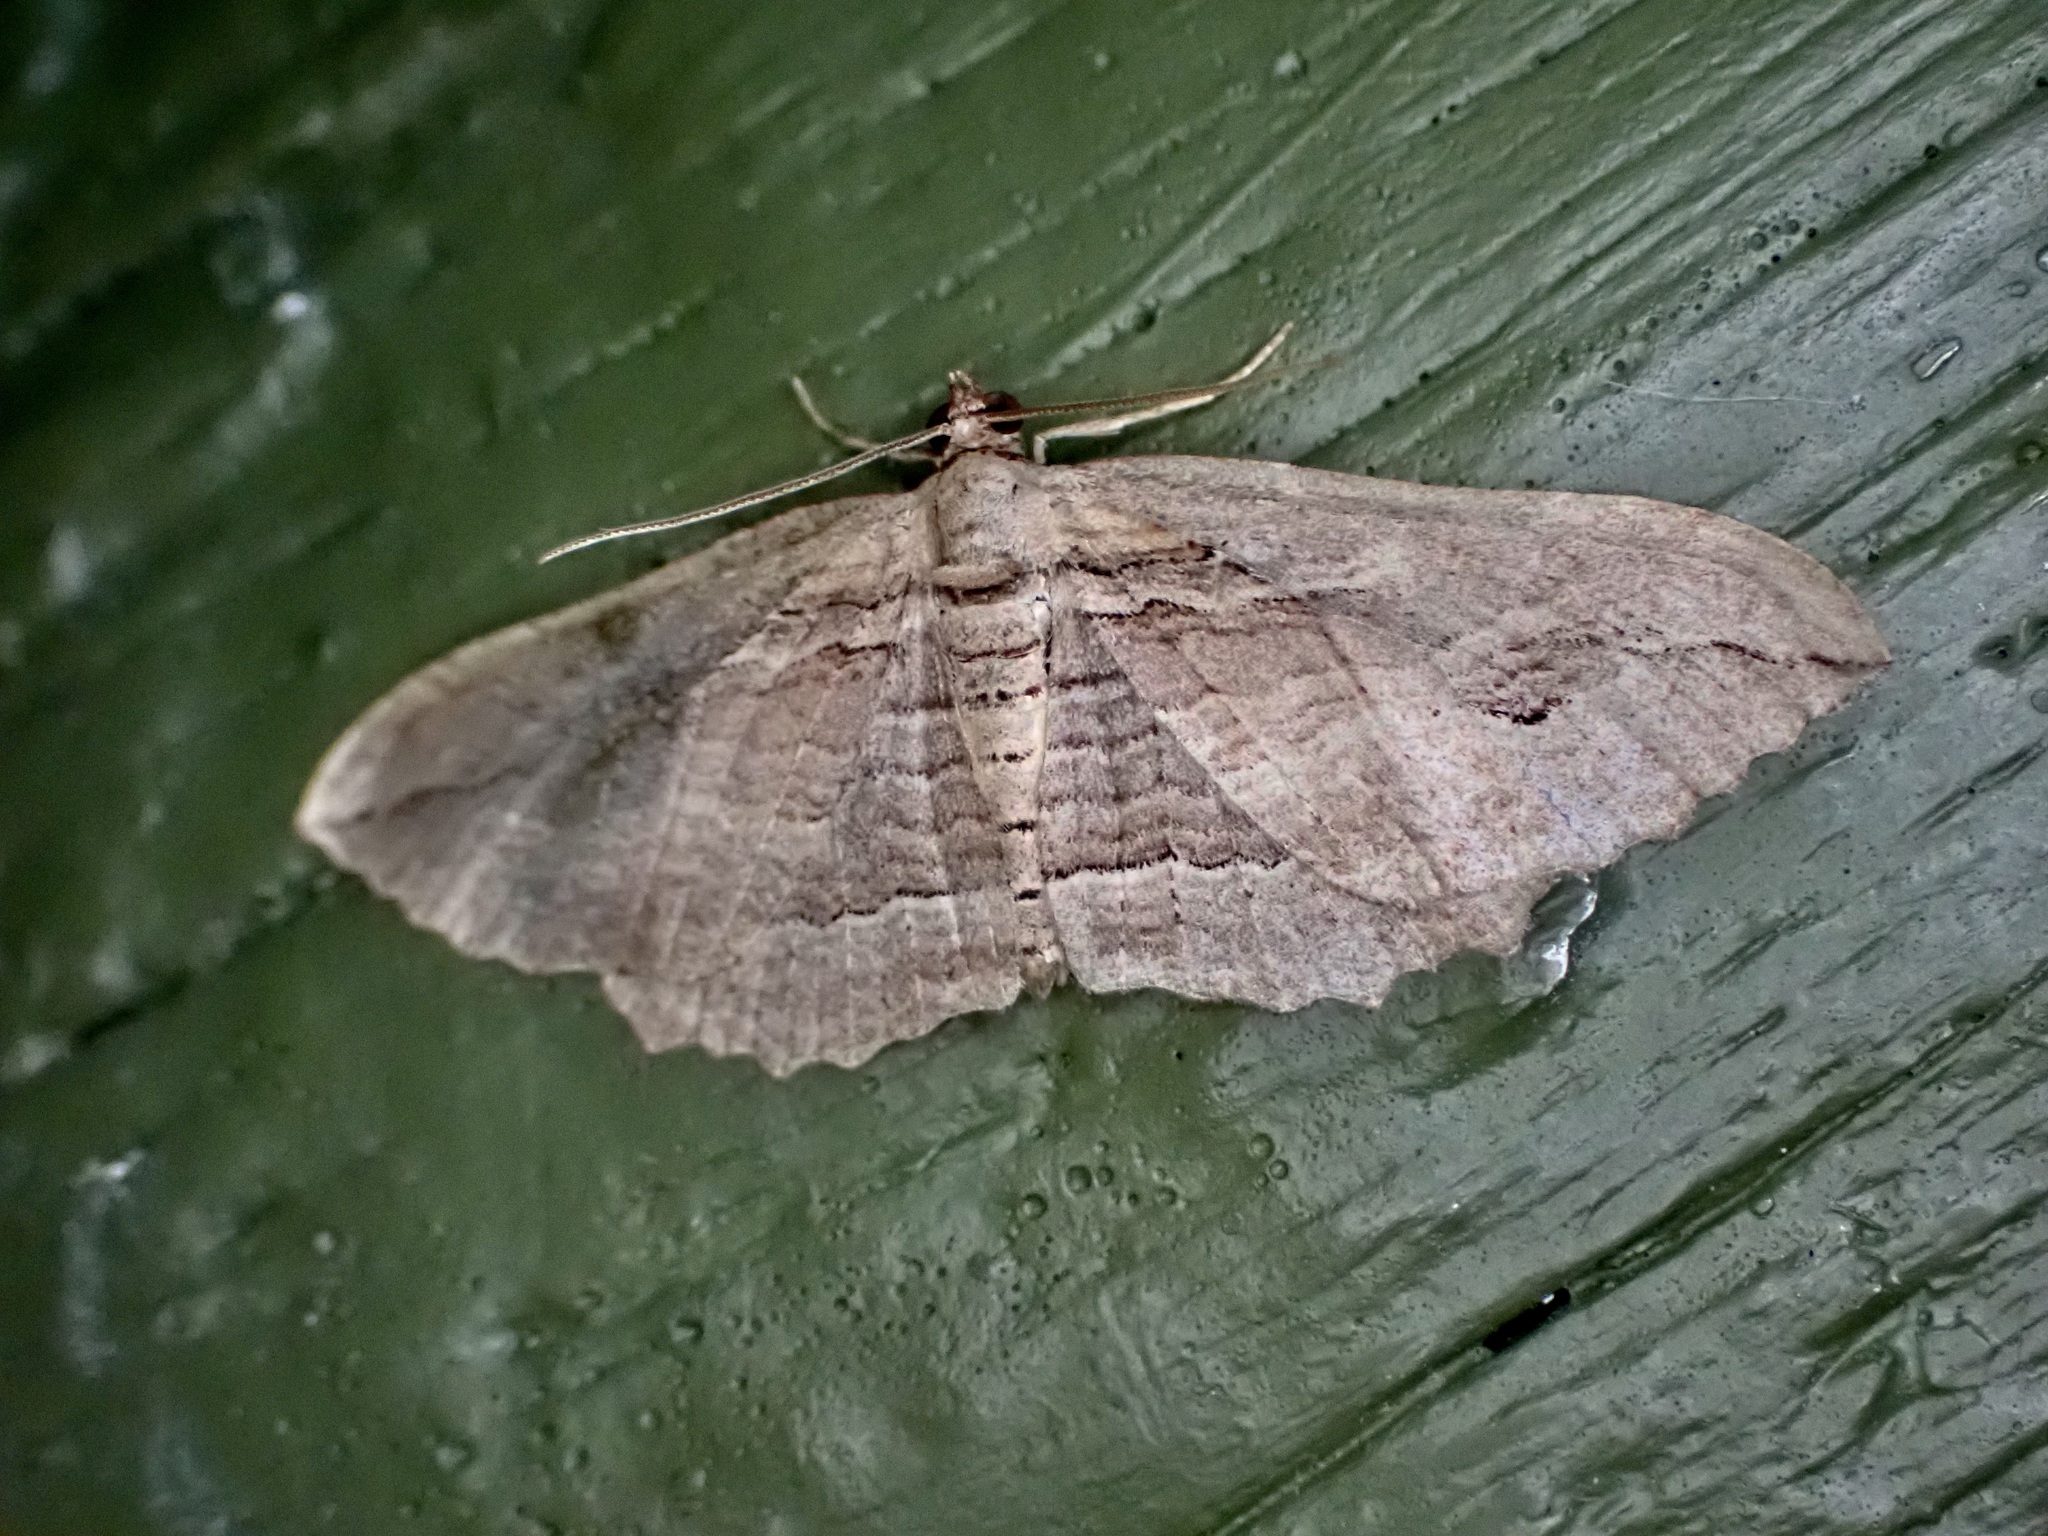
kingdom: Animalia
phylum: Arthropoda
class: Insecta
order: Lepidoptera
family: Geometridae
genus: Austrocidaria
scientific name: Austrocidaria gobiata
